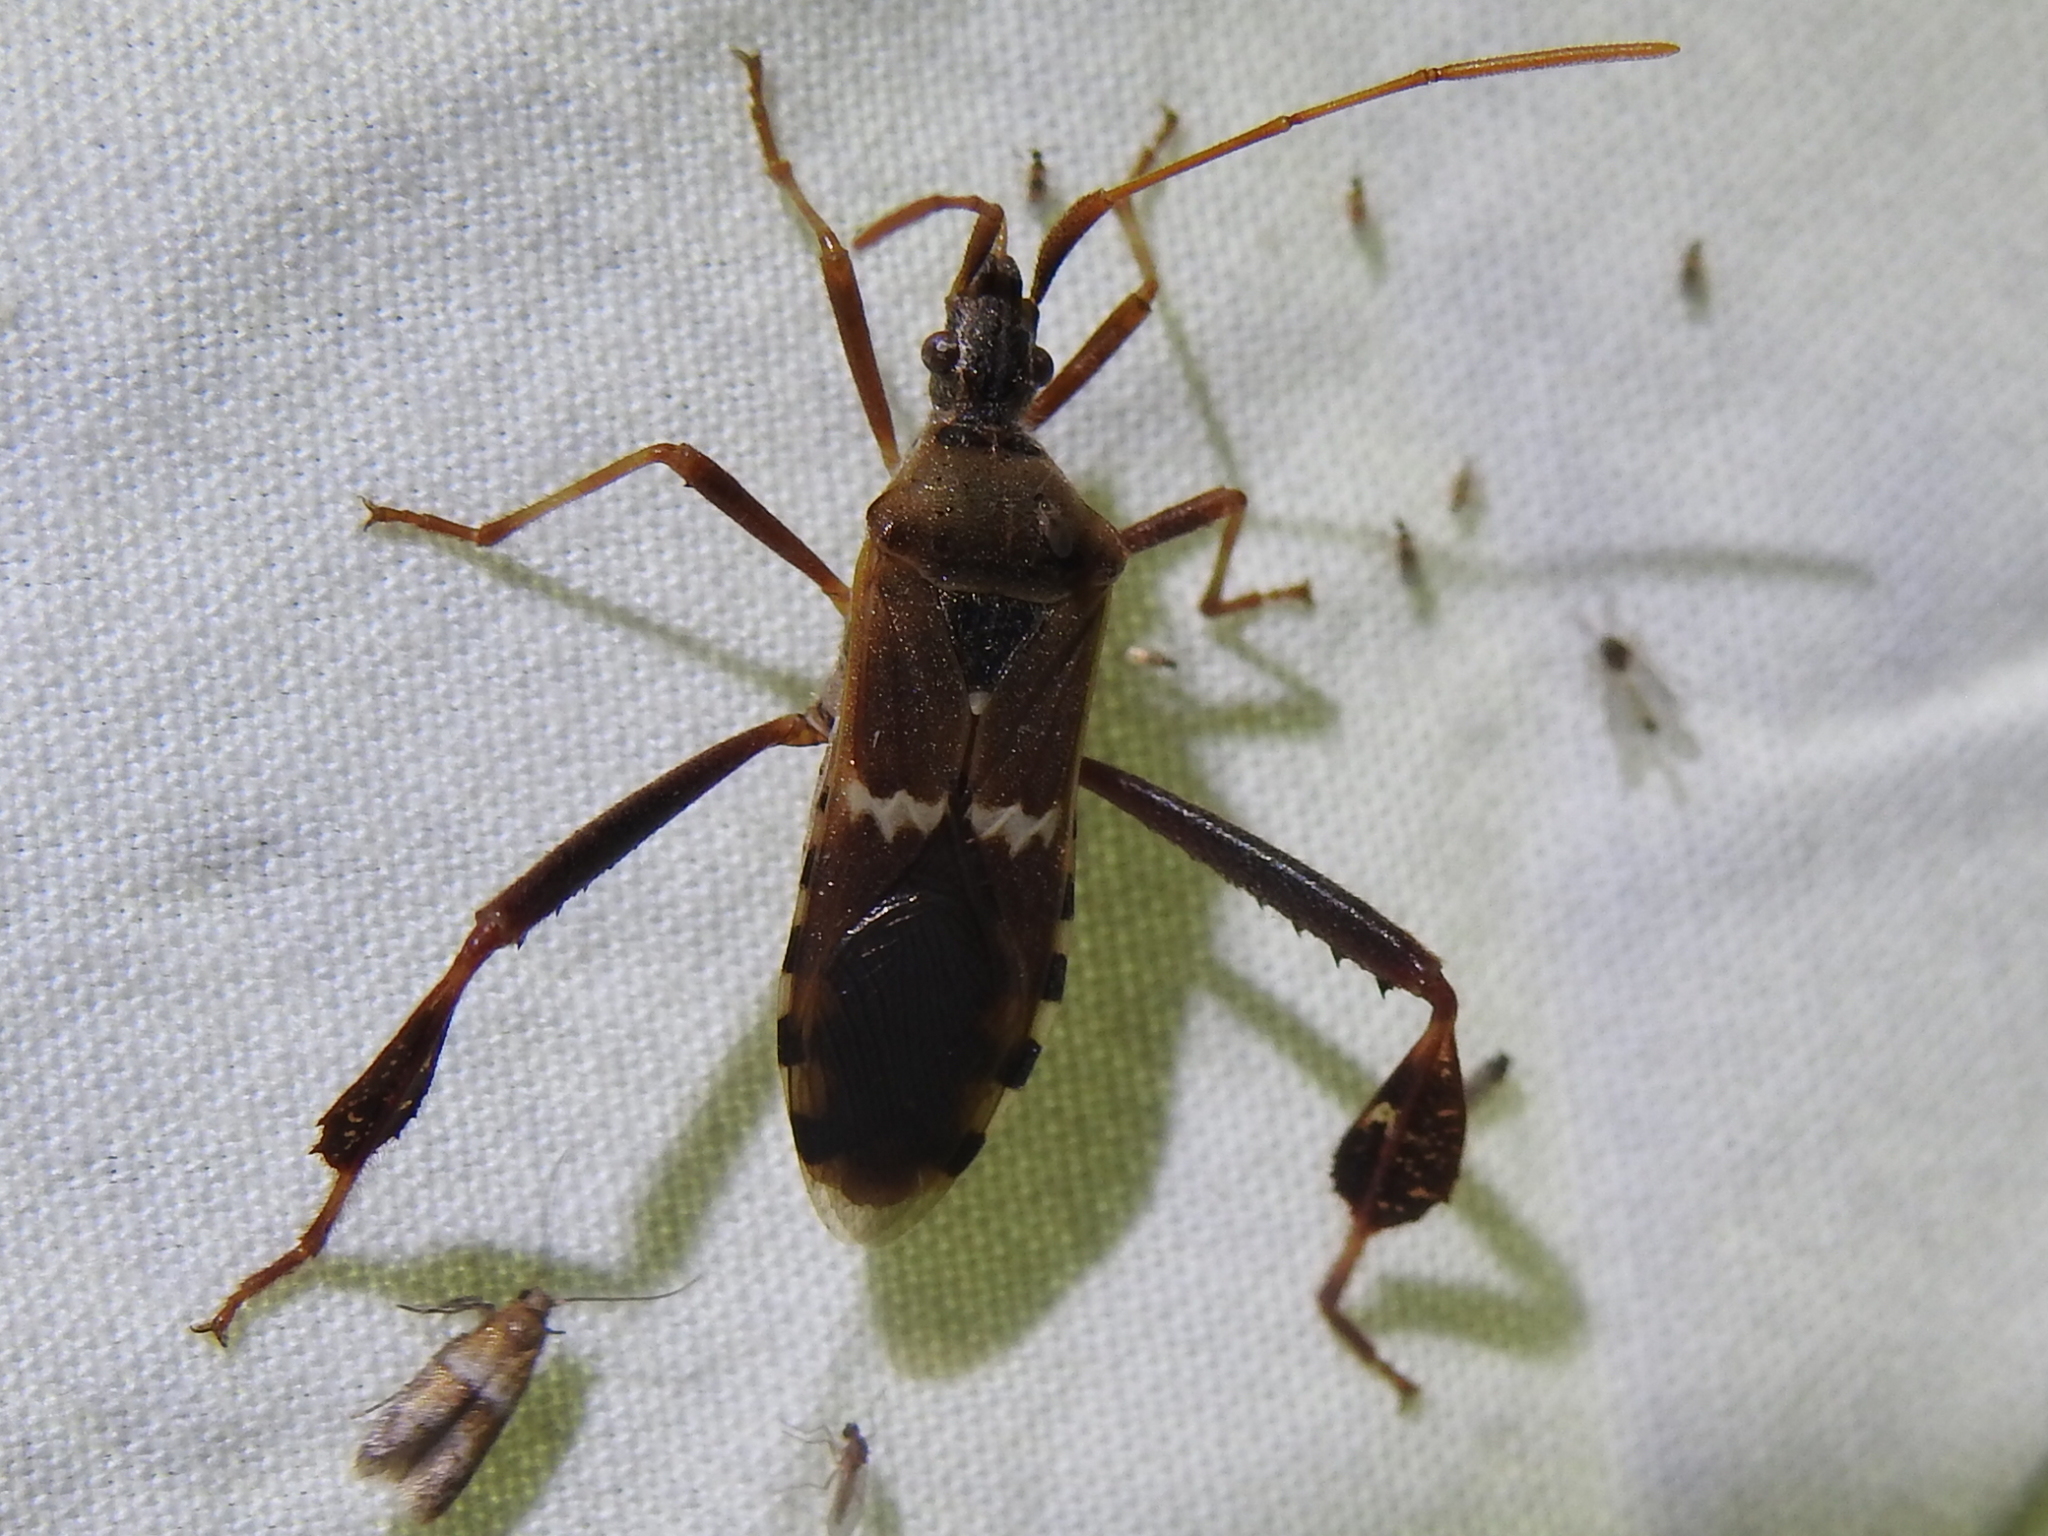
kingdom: Animalia
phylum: Arthropoda
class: Insecta
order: Hemiptera
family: Coreidae
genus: Leptoglossus
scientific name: Leptoglossus clypealis
